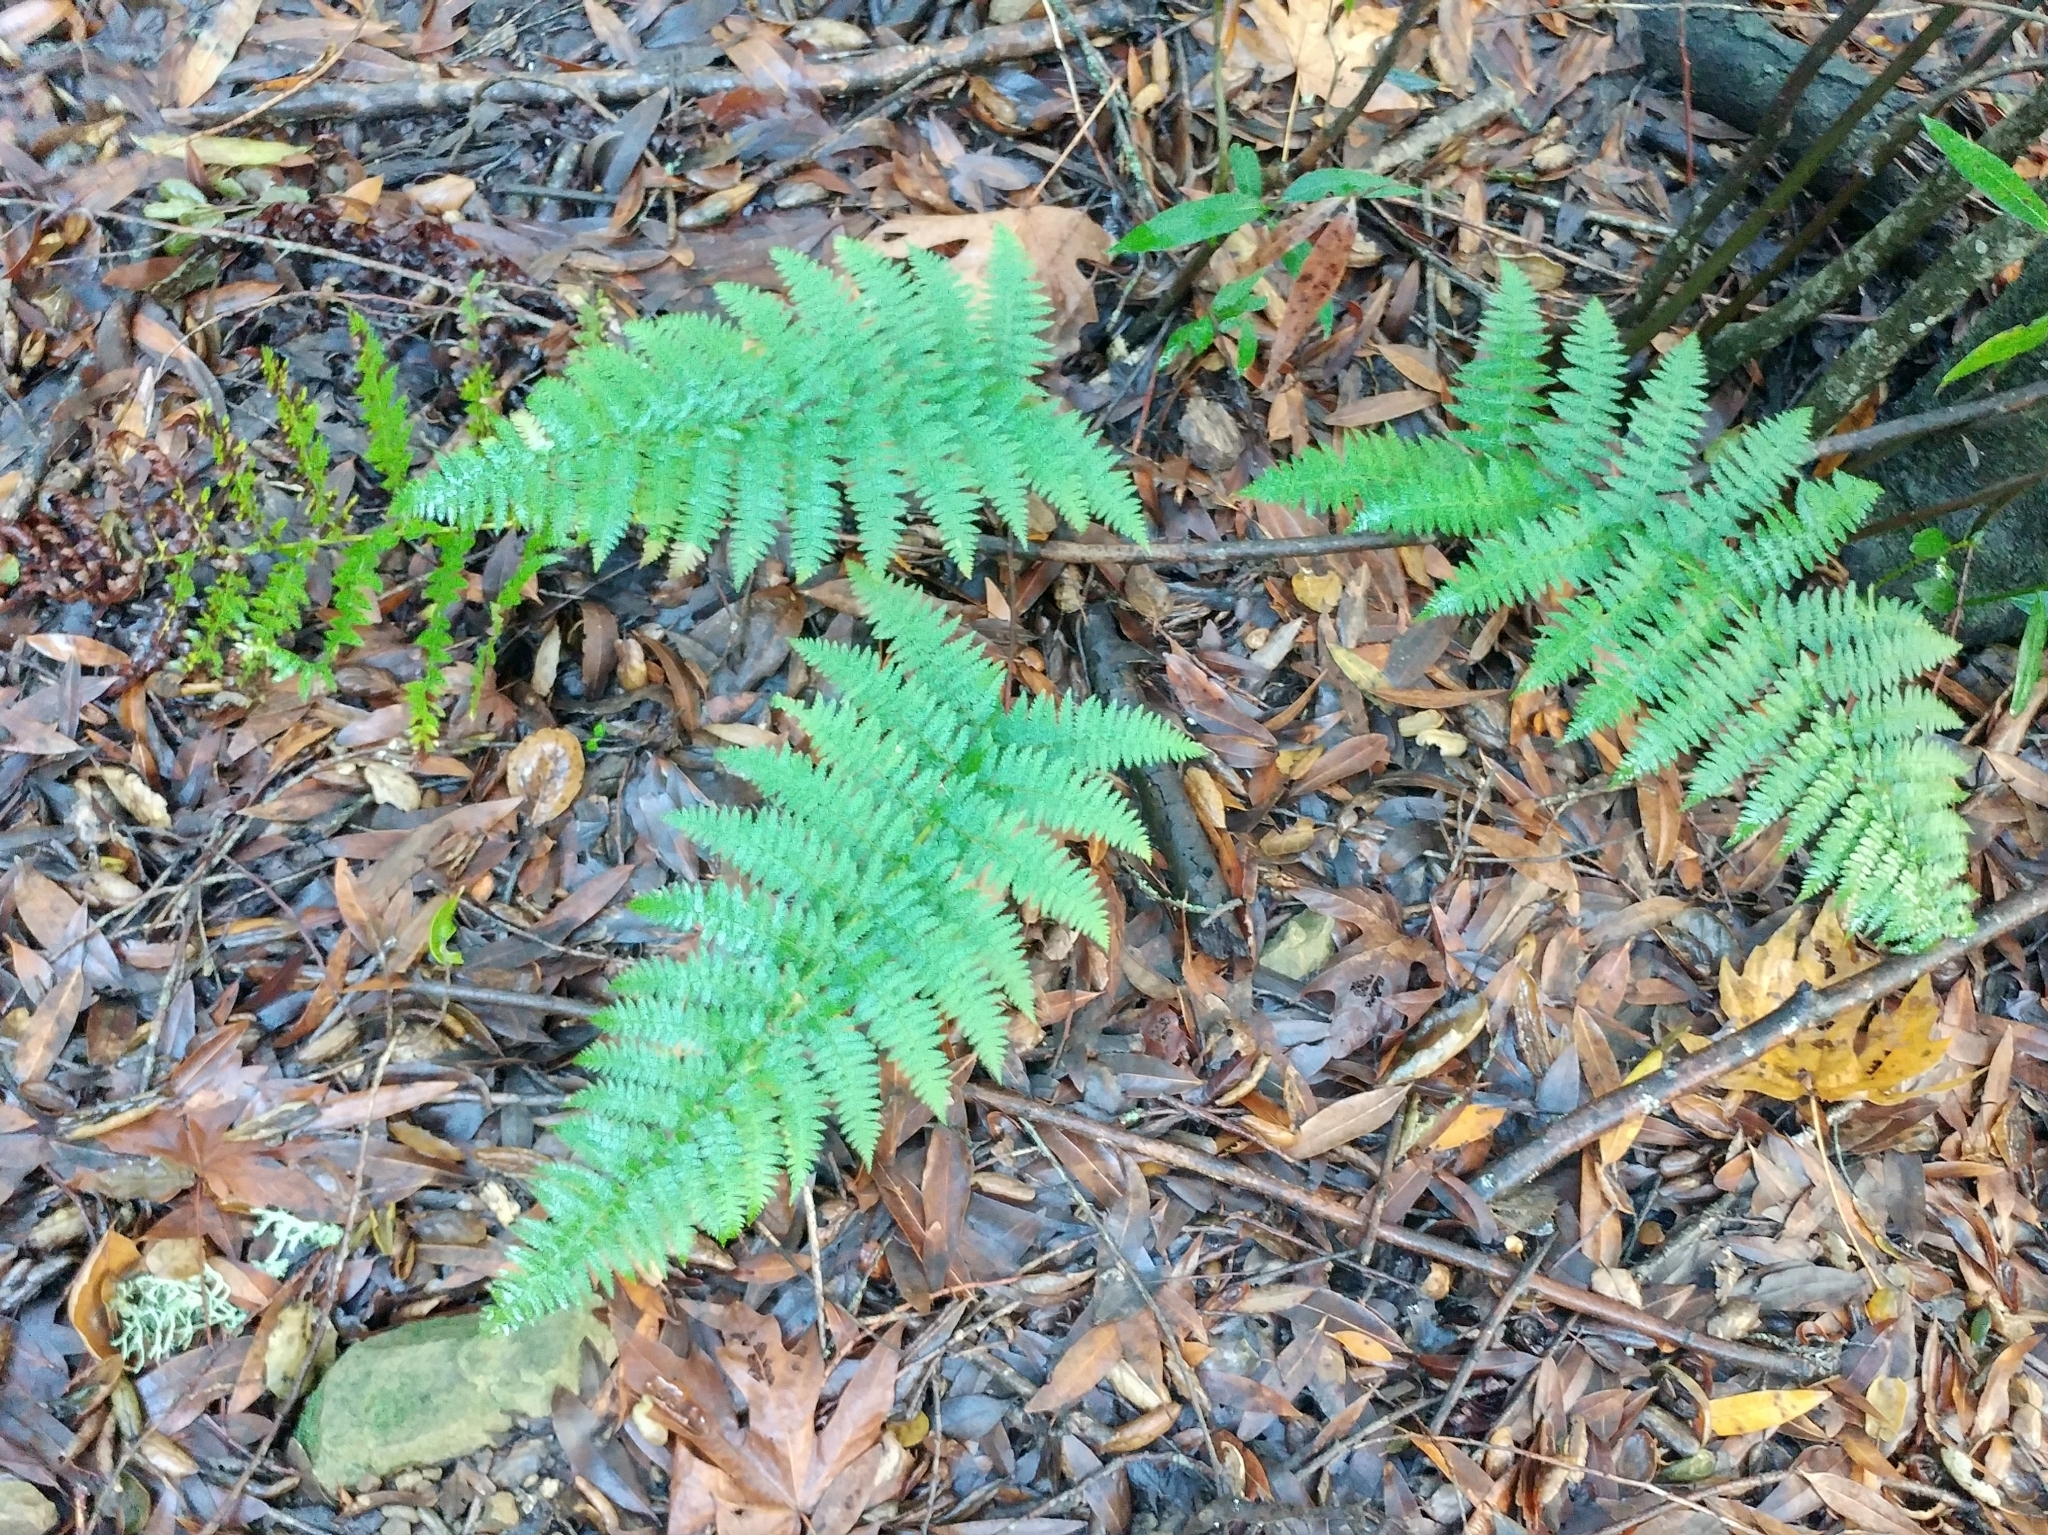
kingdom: Plantae
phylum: Tracheophyta
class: Polypodiopsida
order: Polypodiales
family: Dryopteridaceae
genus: Dryopteris
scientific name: Dryopteris arguta
